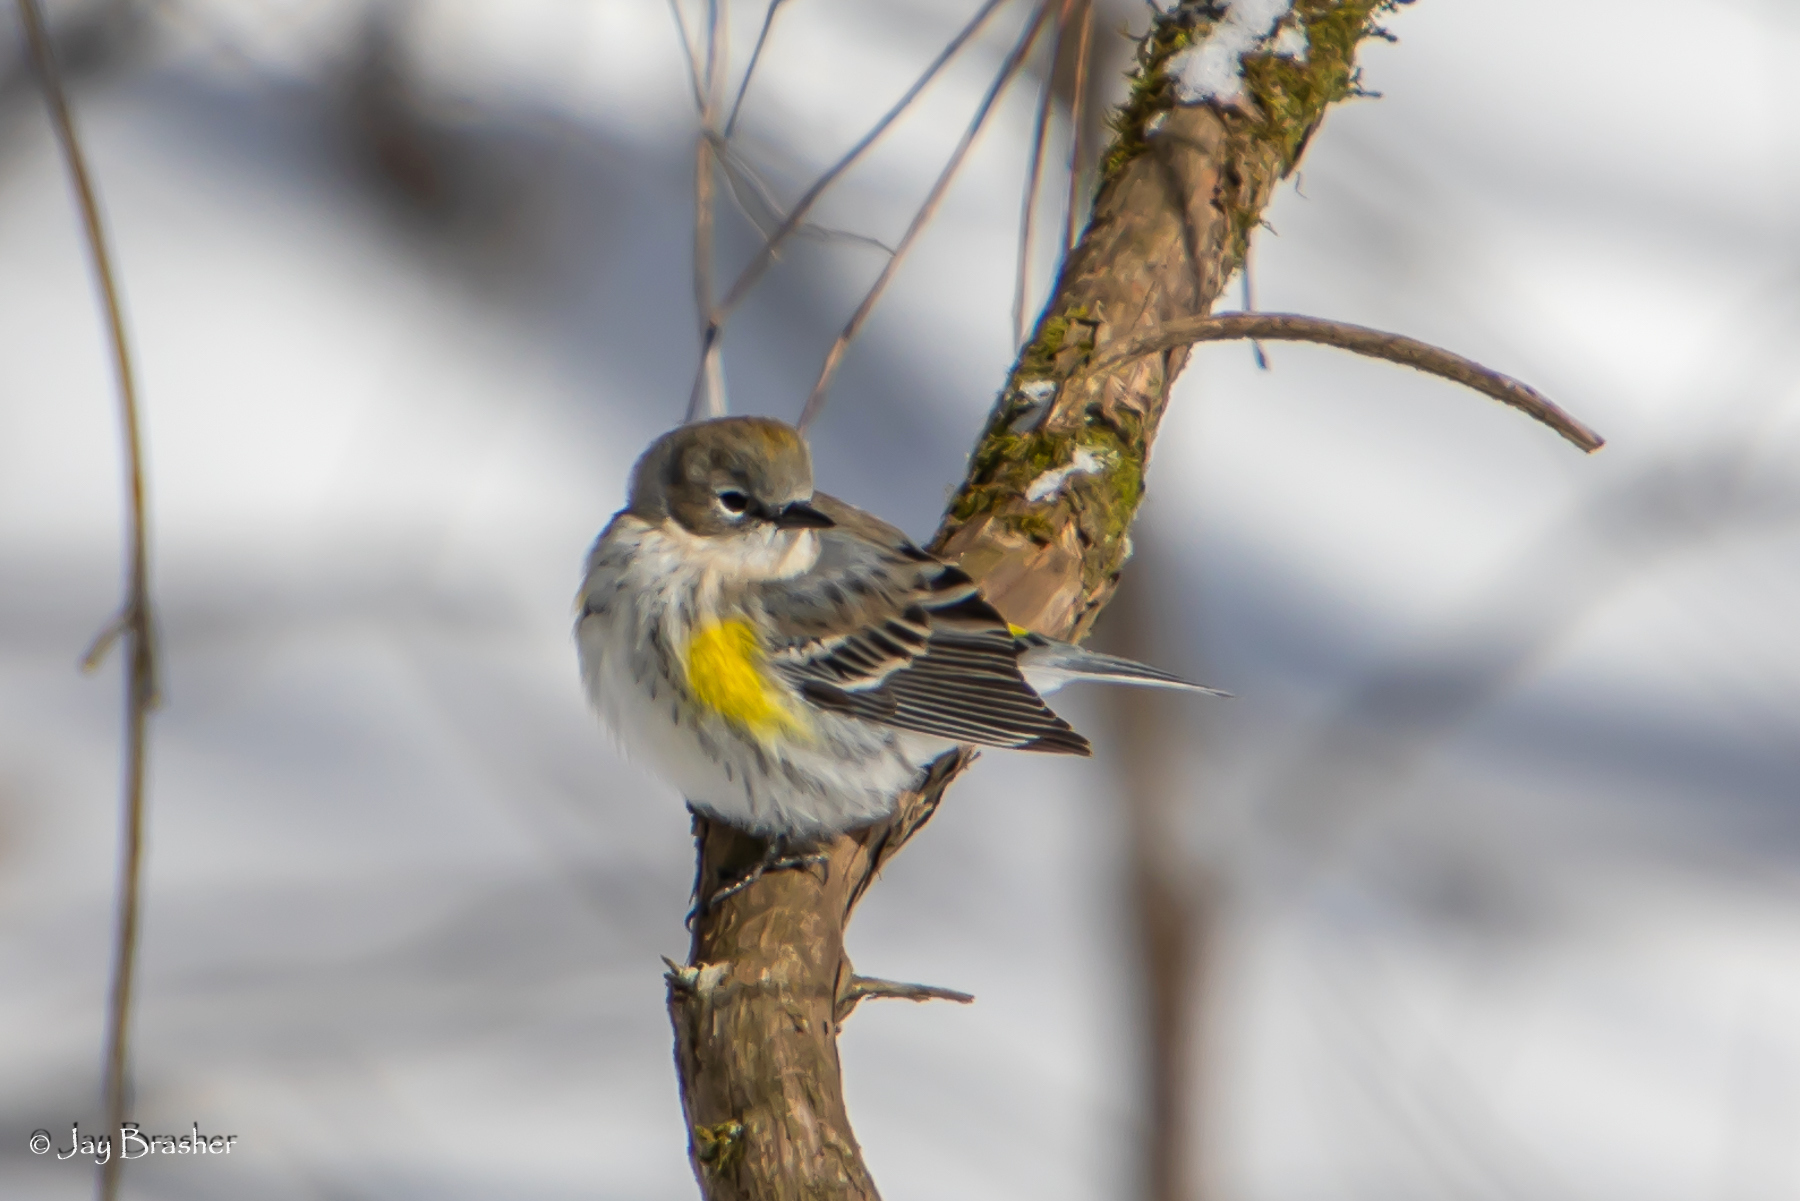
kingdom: Animalia
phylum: Chordata
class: Aves
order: Passeriformes
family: Parulidae
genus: Setophaga
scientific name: Setophaga coronata
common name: Myrtle warbler
